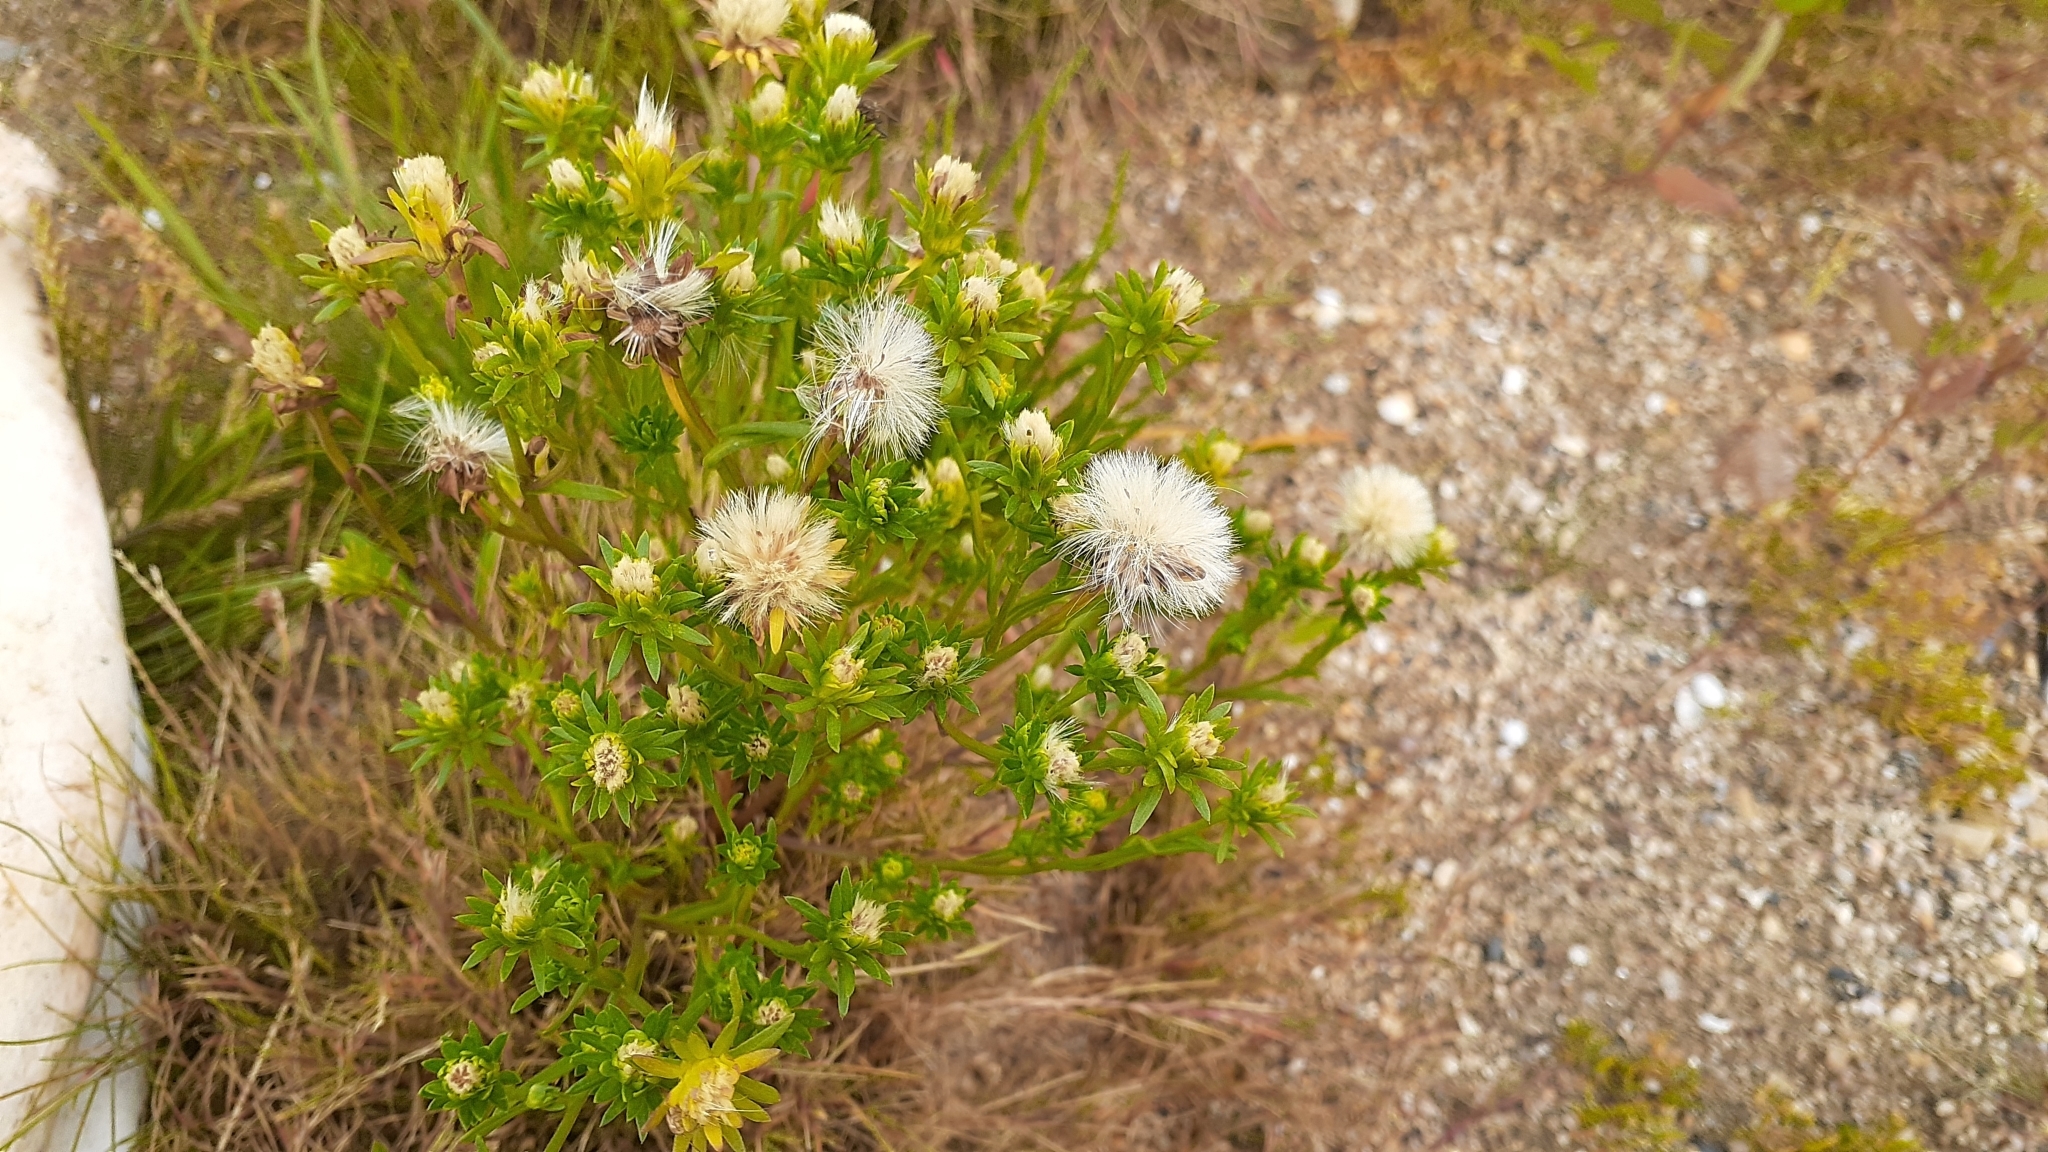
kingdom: Plantae
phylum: Tracheophyta
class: Magnoliopsida
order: Asterales
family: Asteraceae
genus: Symphyotrichum
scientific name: Symphyotrichum ciliatum
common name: Rayless annual aster
